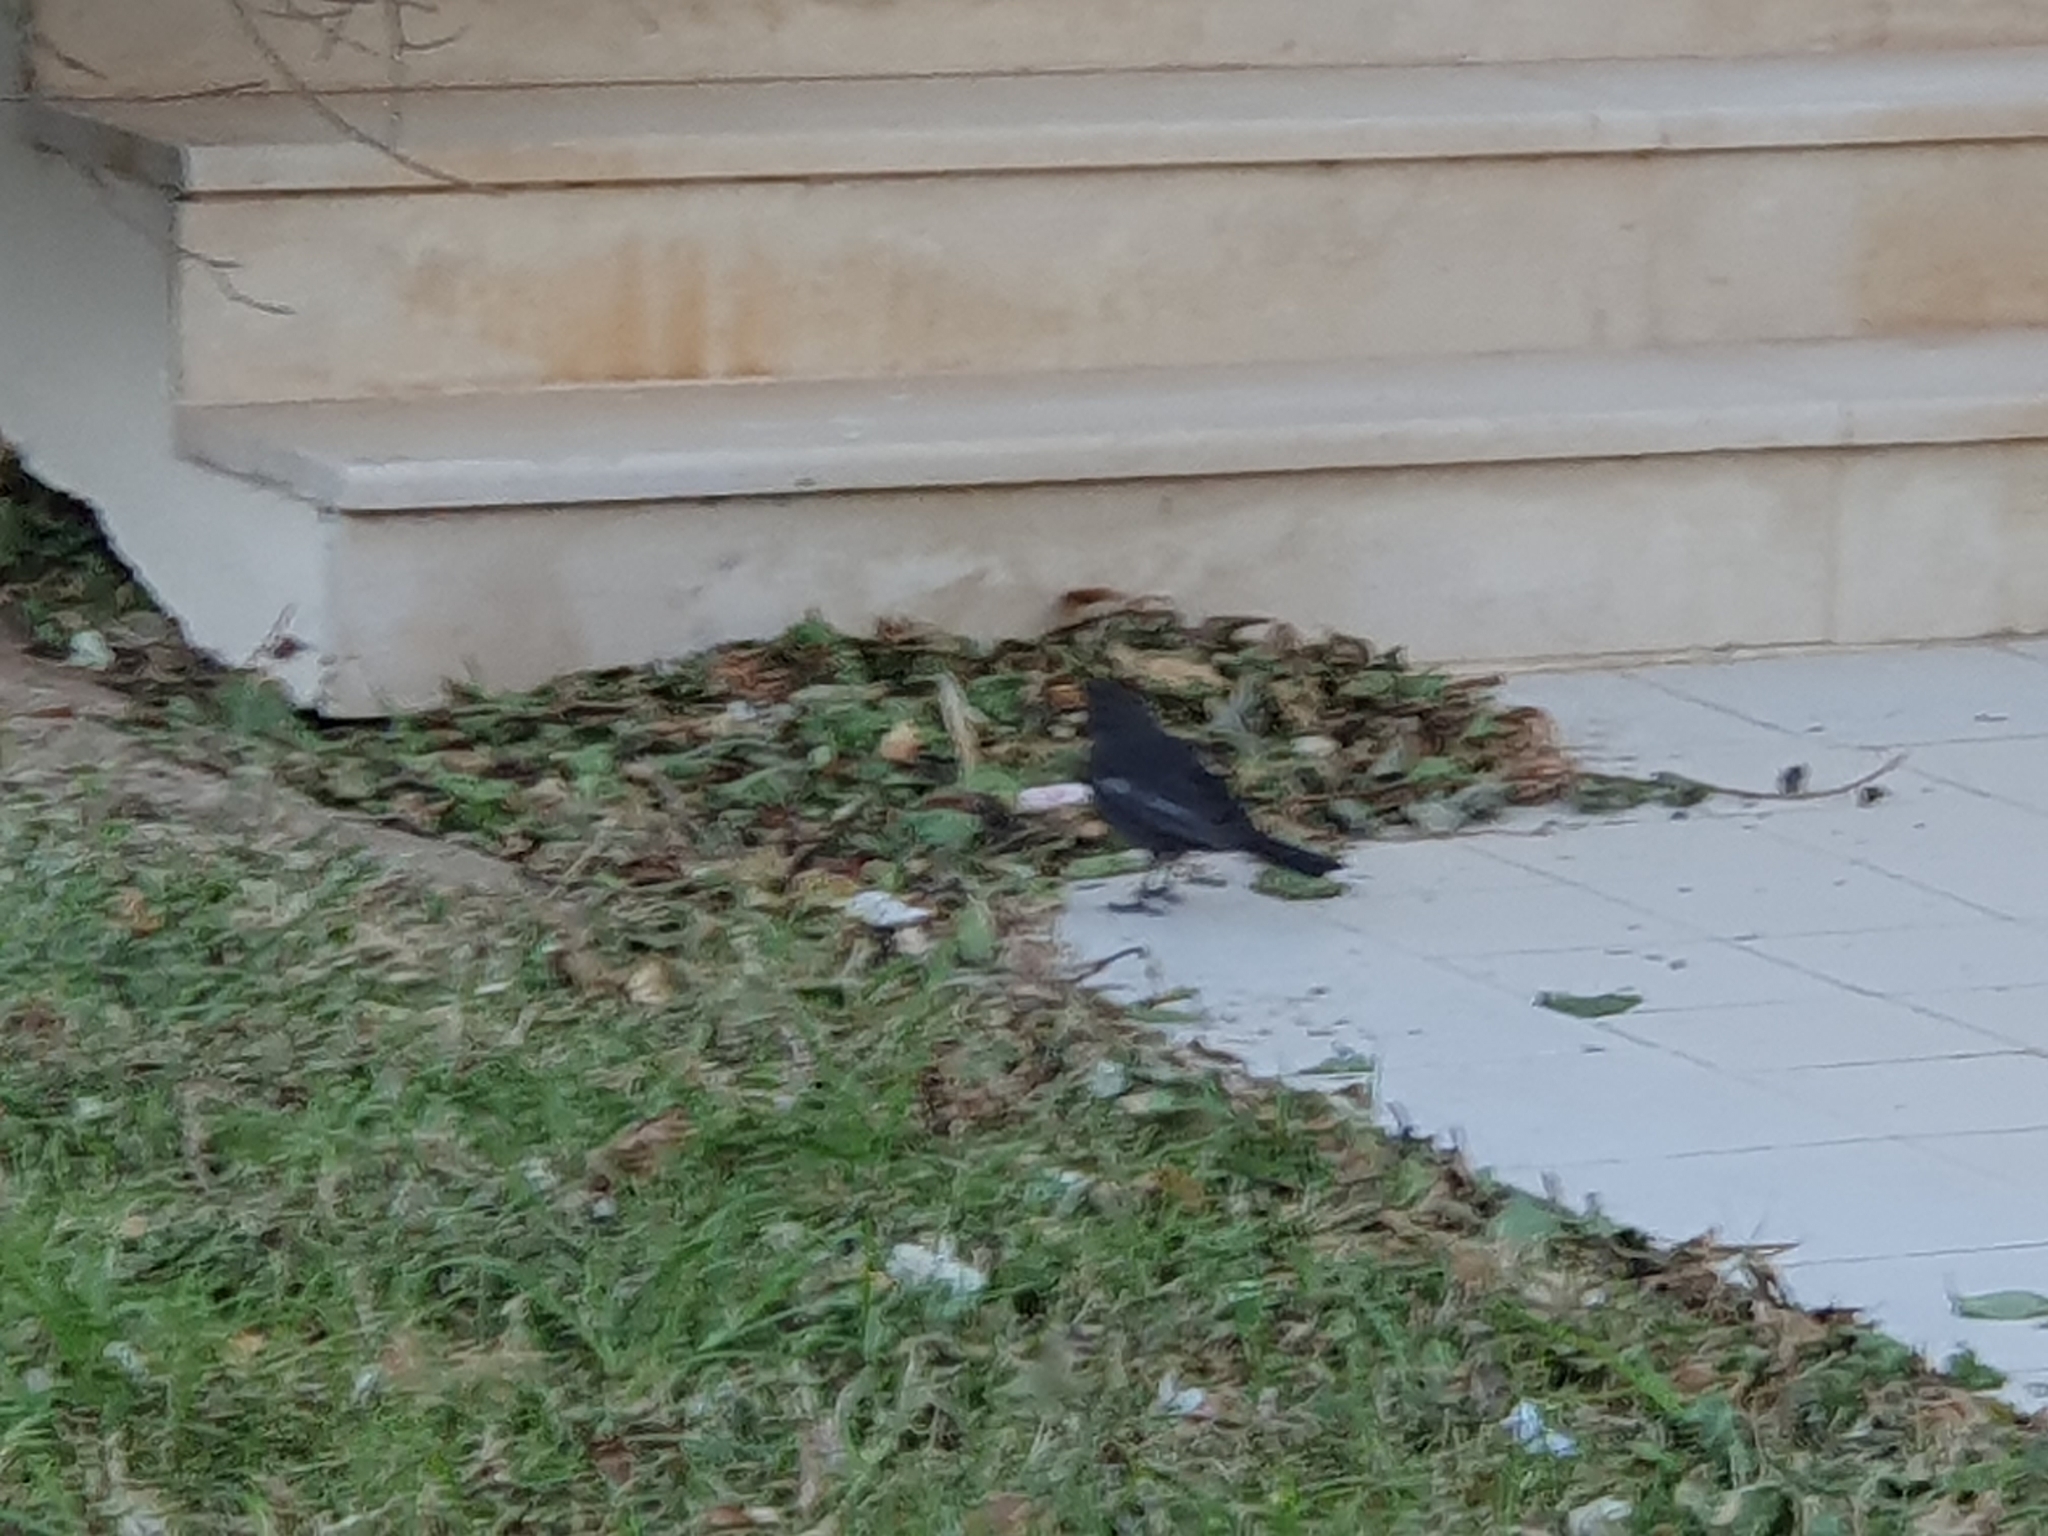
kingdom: Animalia
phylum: Chordata
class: Aves
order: Passeriformes
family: Turdidae
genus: Turdus
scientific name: Turdus merula
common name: Common blackbird
